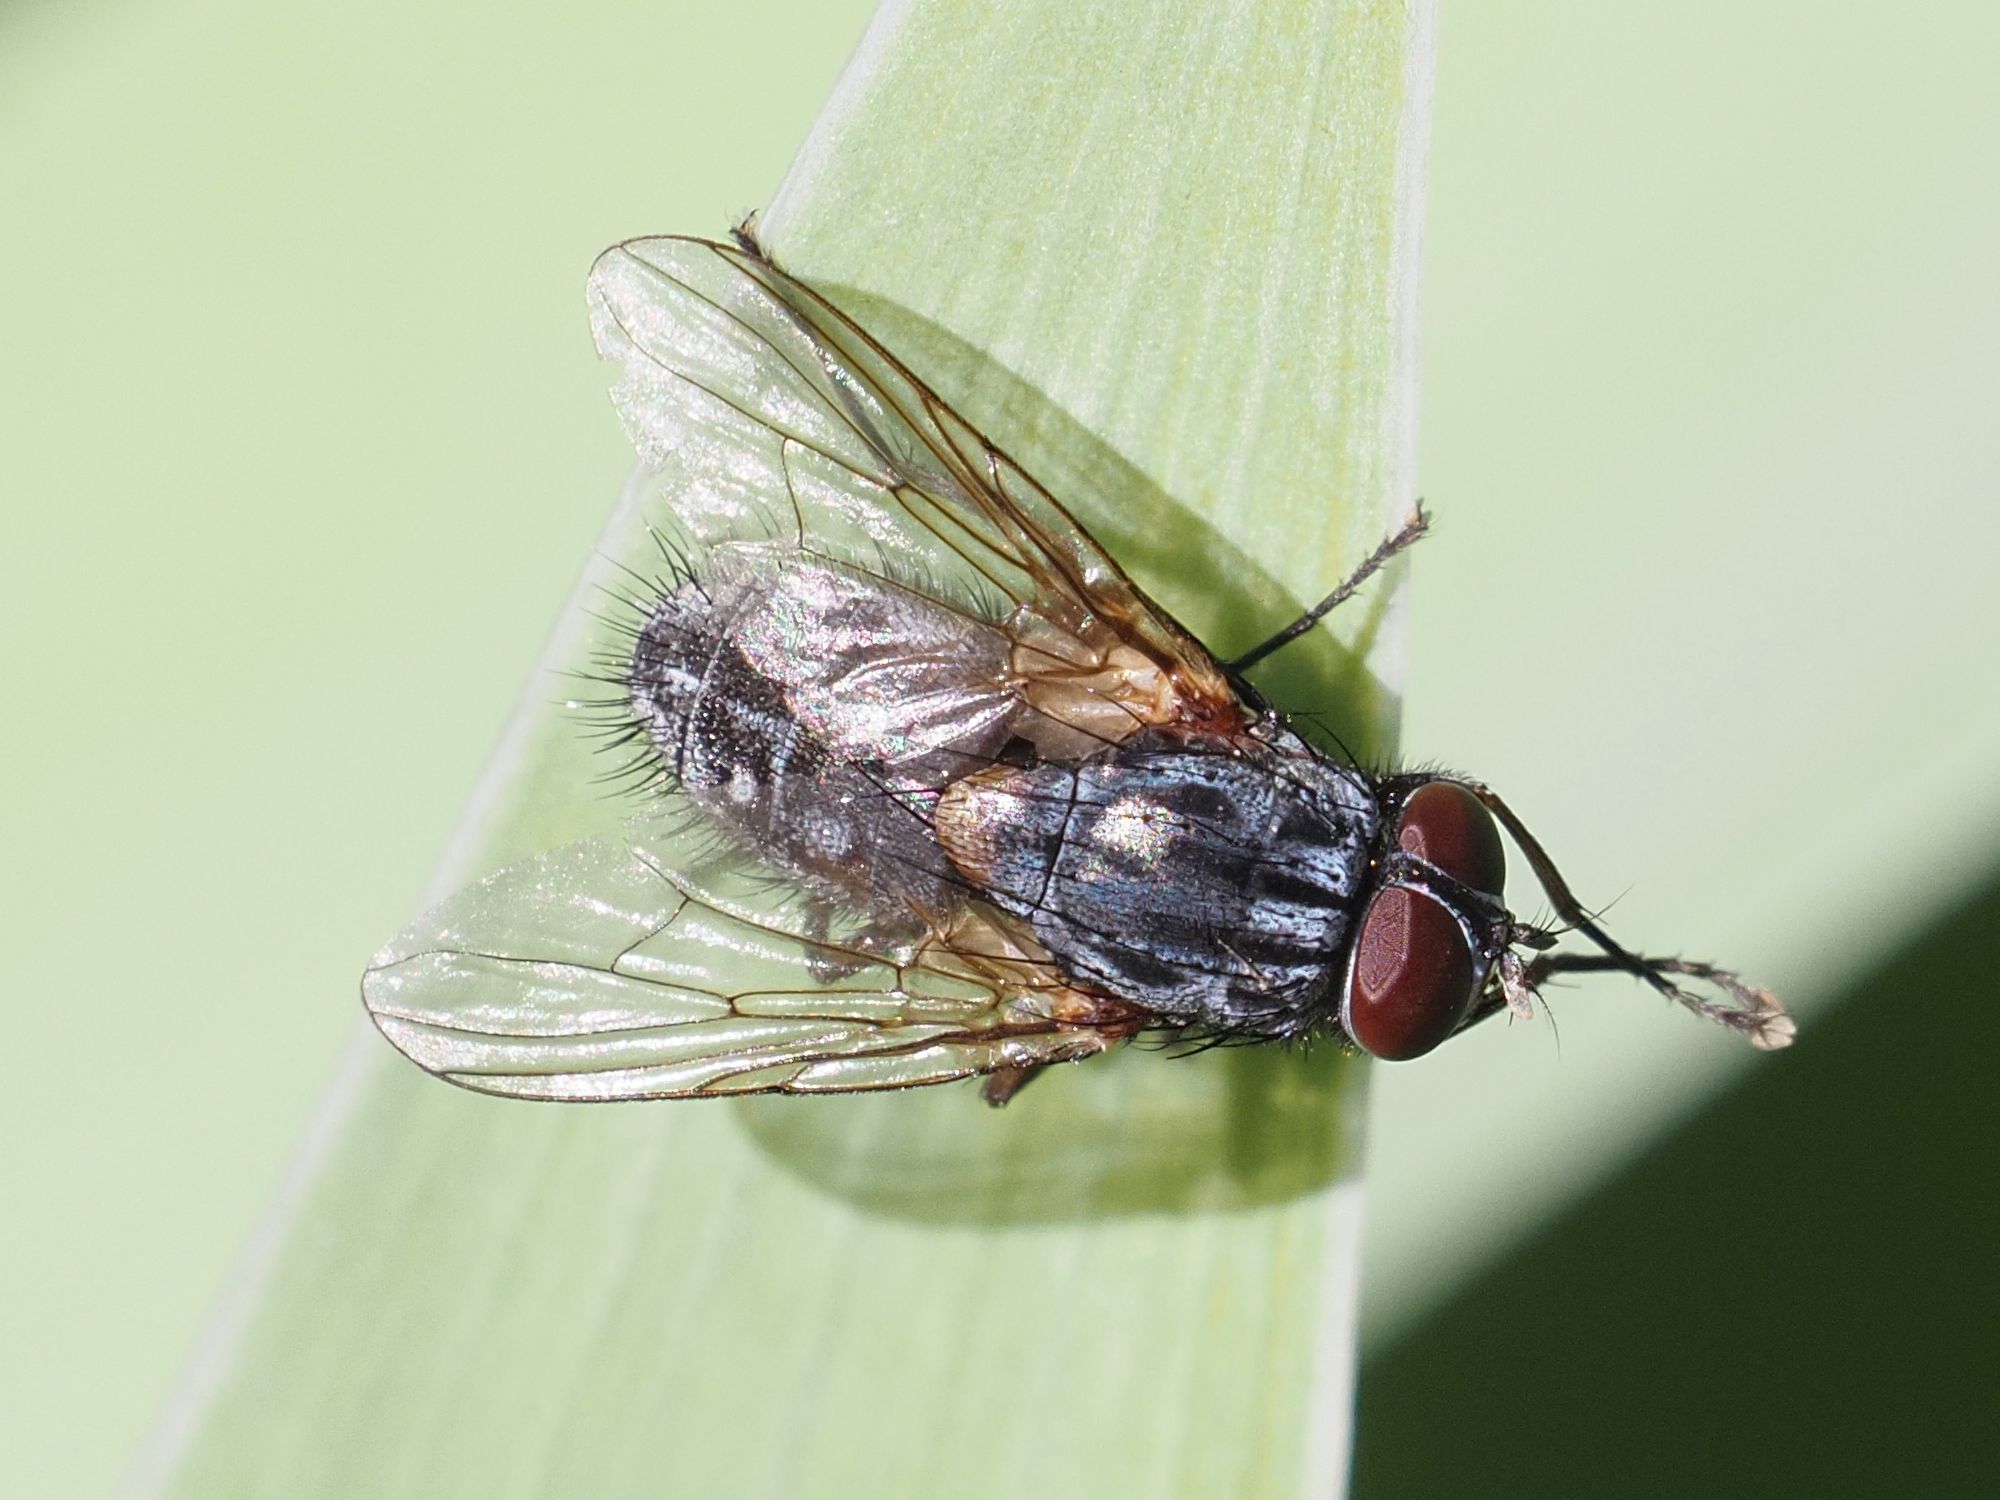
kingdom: Animalia
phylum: Arthropoda
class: Insecta
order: Diptera
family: Muscidae
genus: Muscina
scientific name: Muscina stabulans
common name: False stable fly
